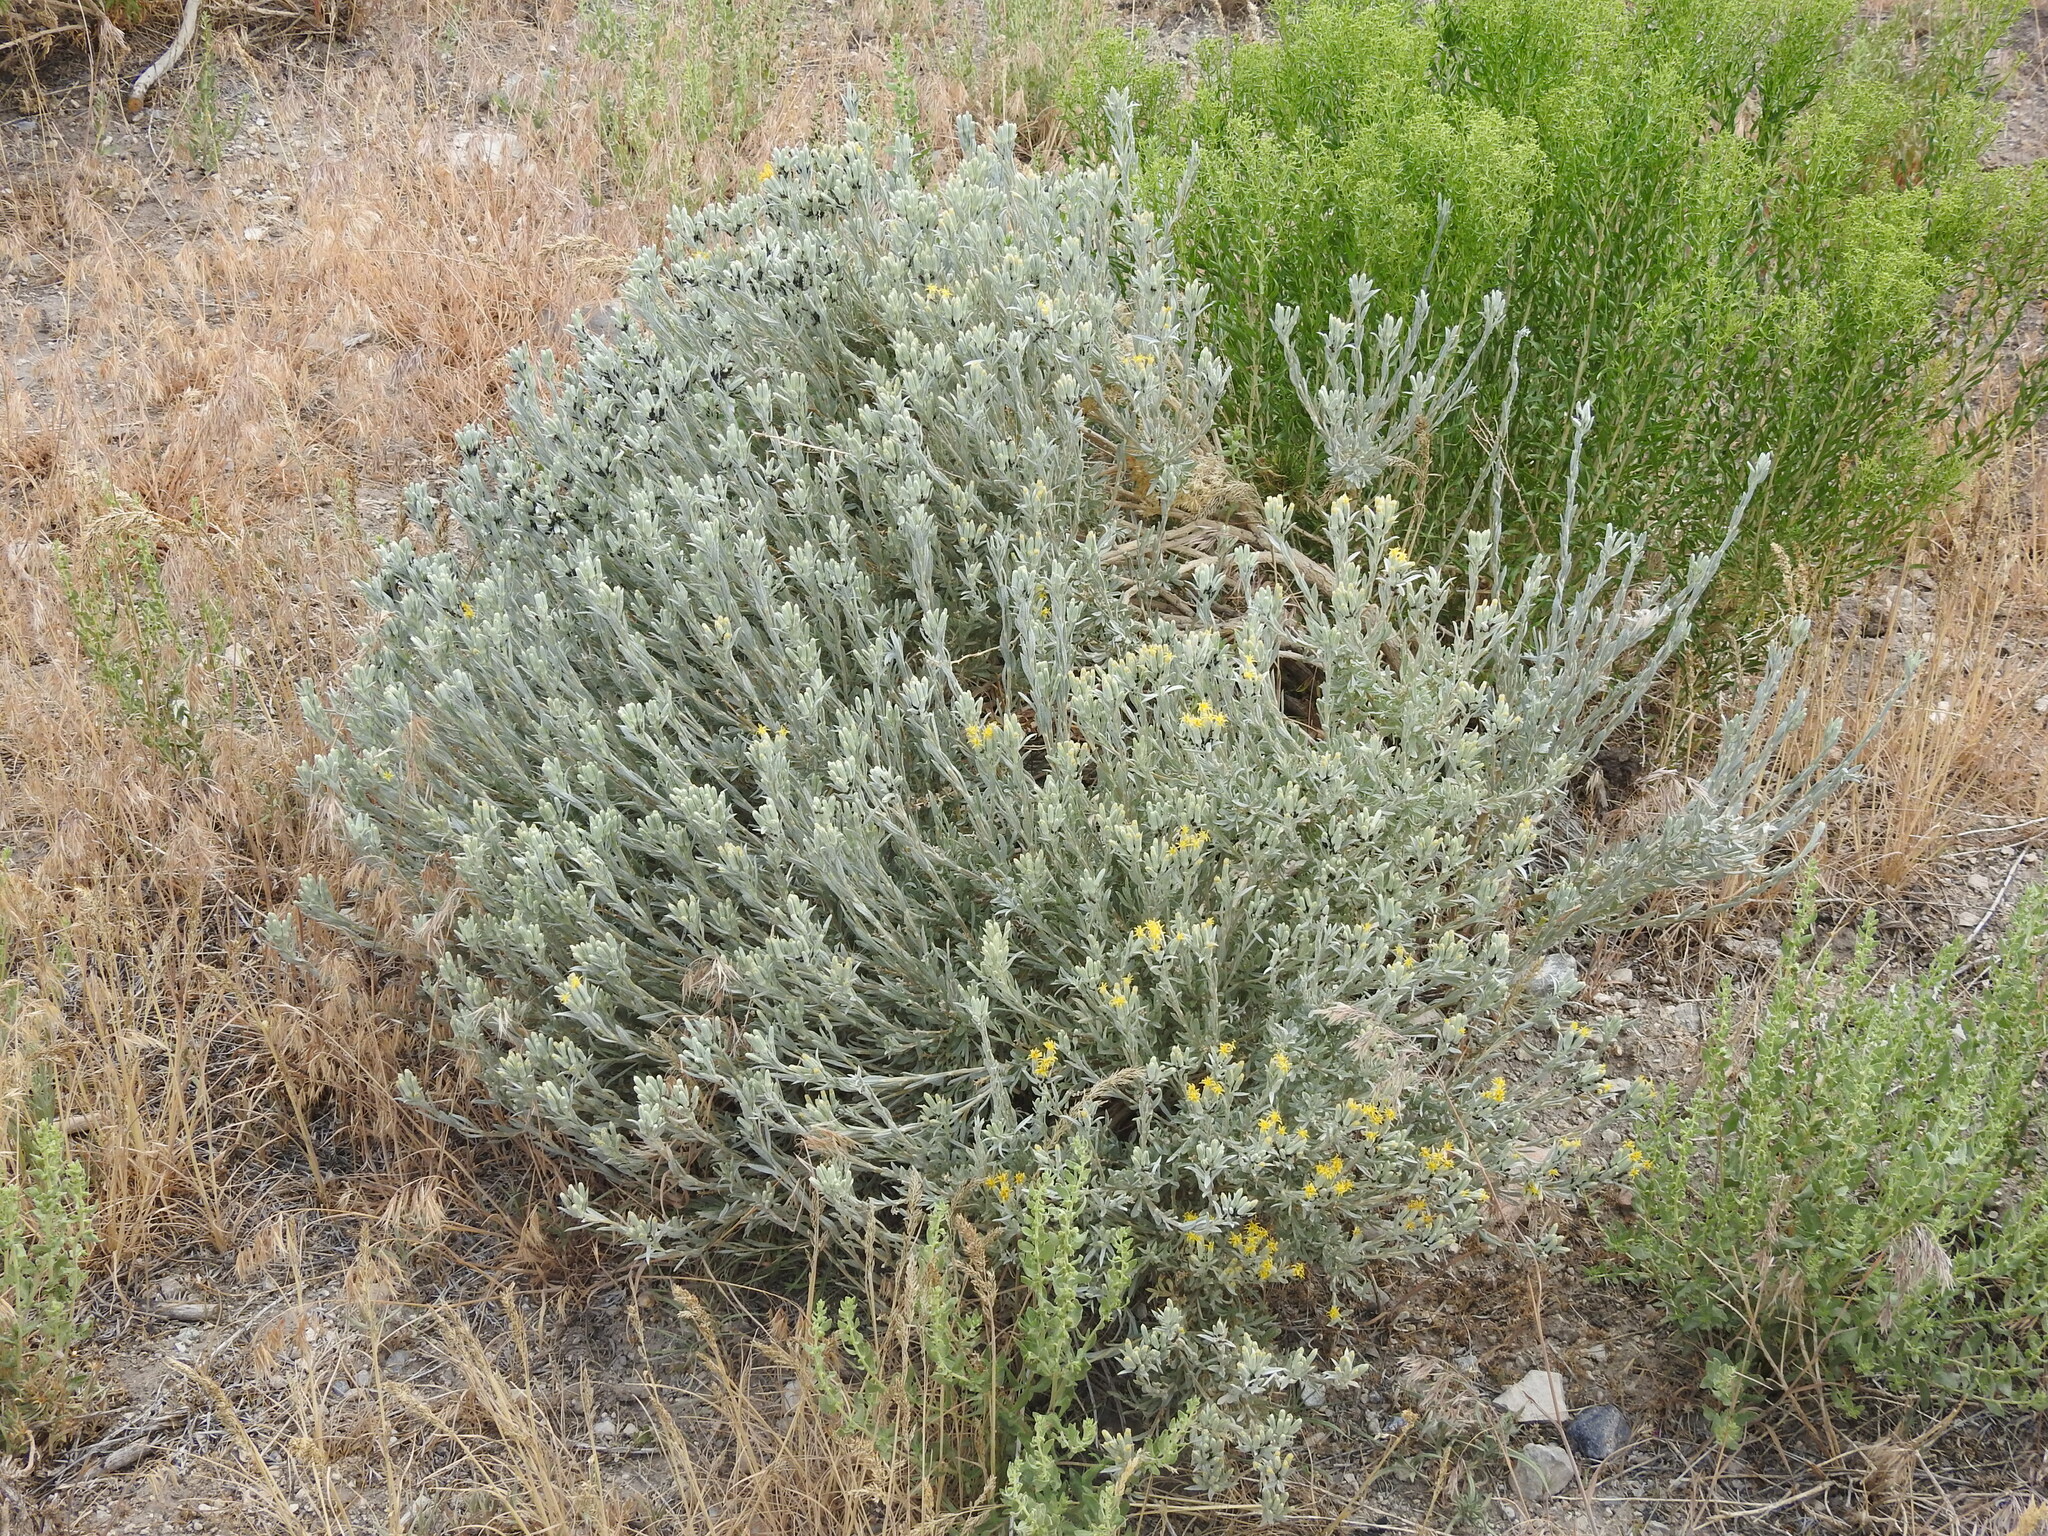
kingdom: Plantae
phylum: Tracheophyta
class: Magnoliopsida
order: Asterales
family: Asteraceae
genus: Tetradymia
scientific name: Tetradymia canescens
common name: Spineless horsebrush
